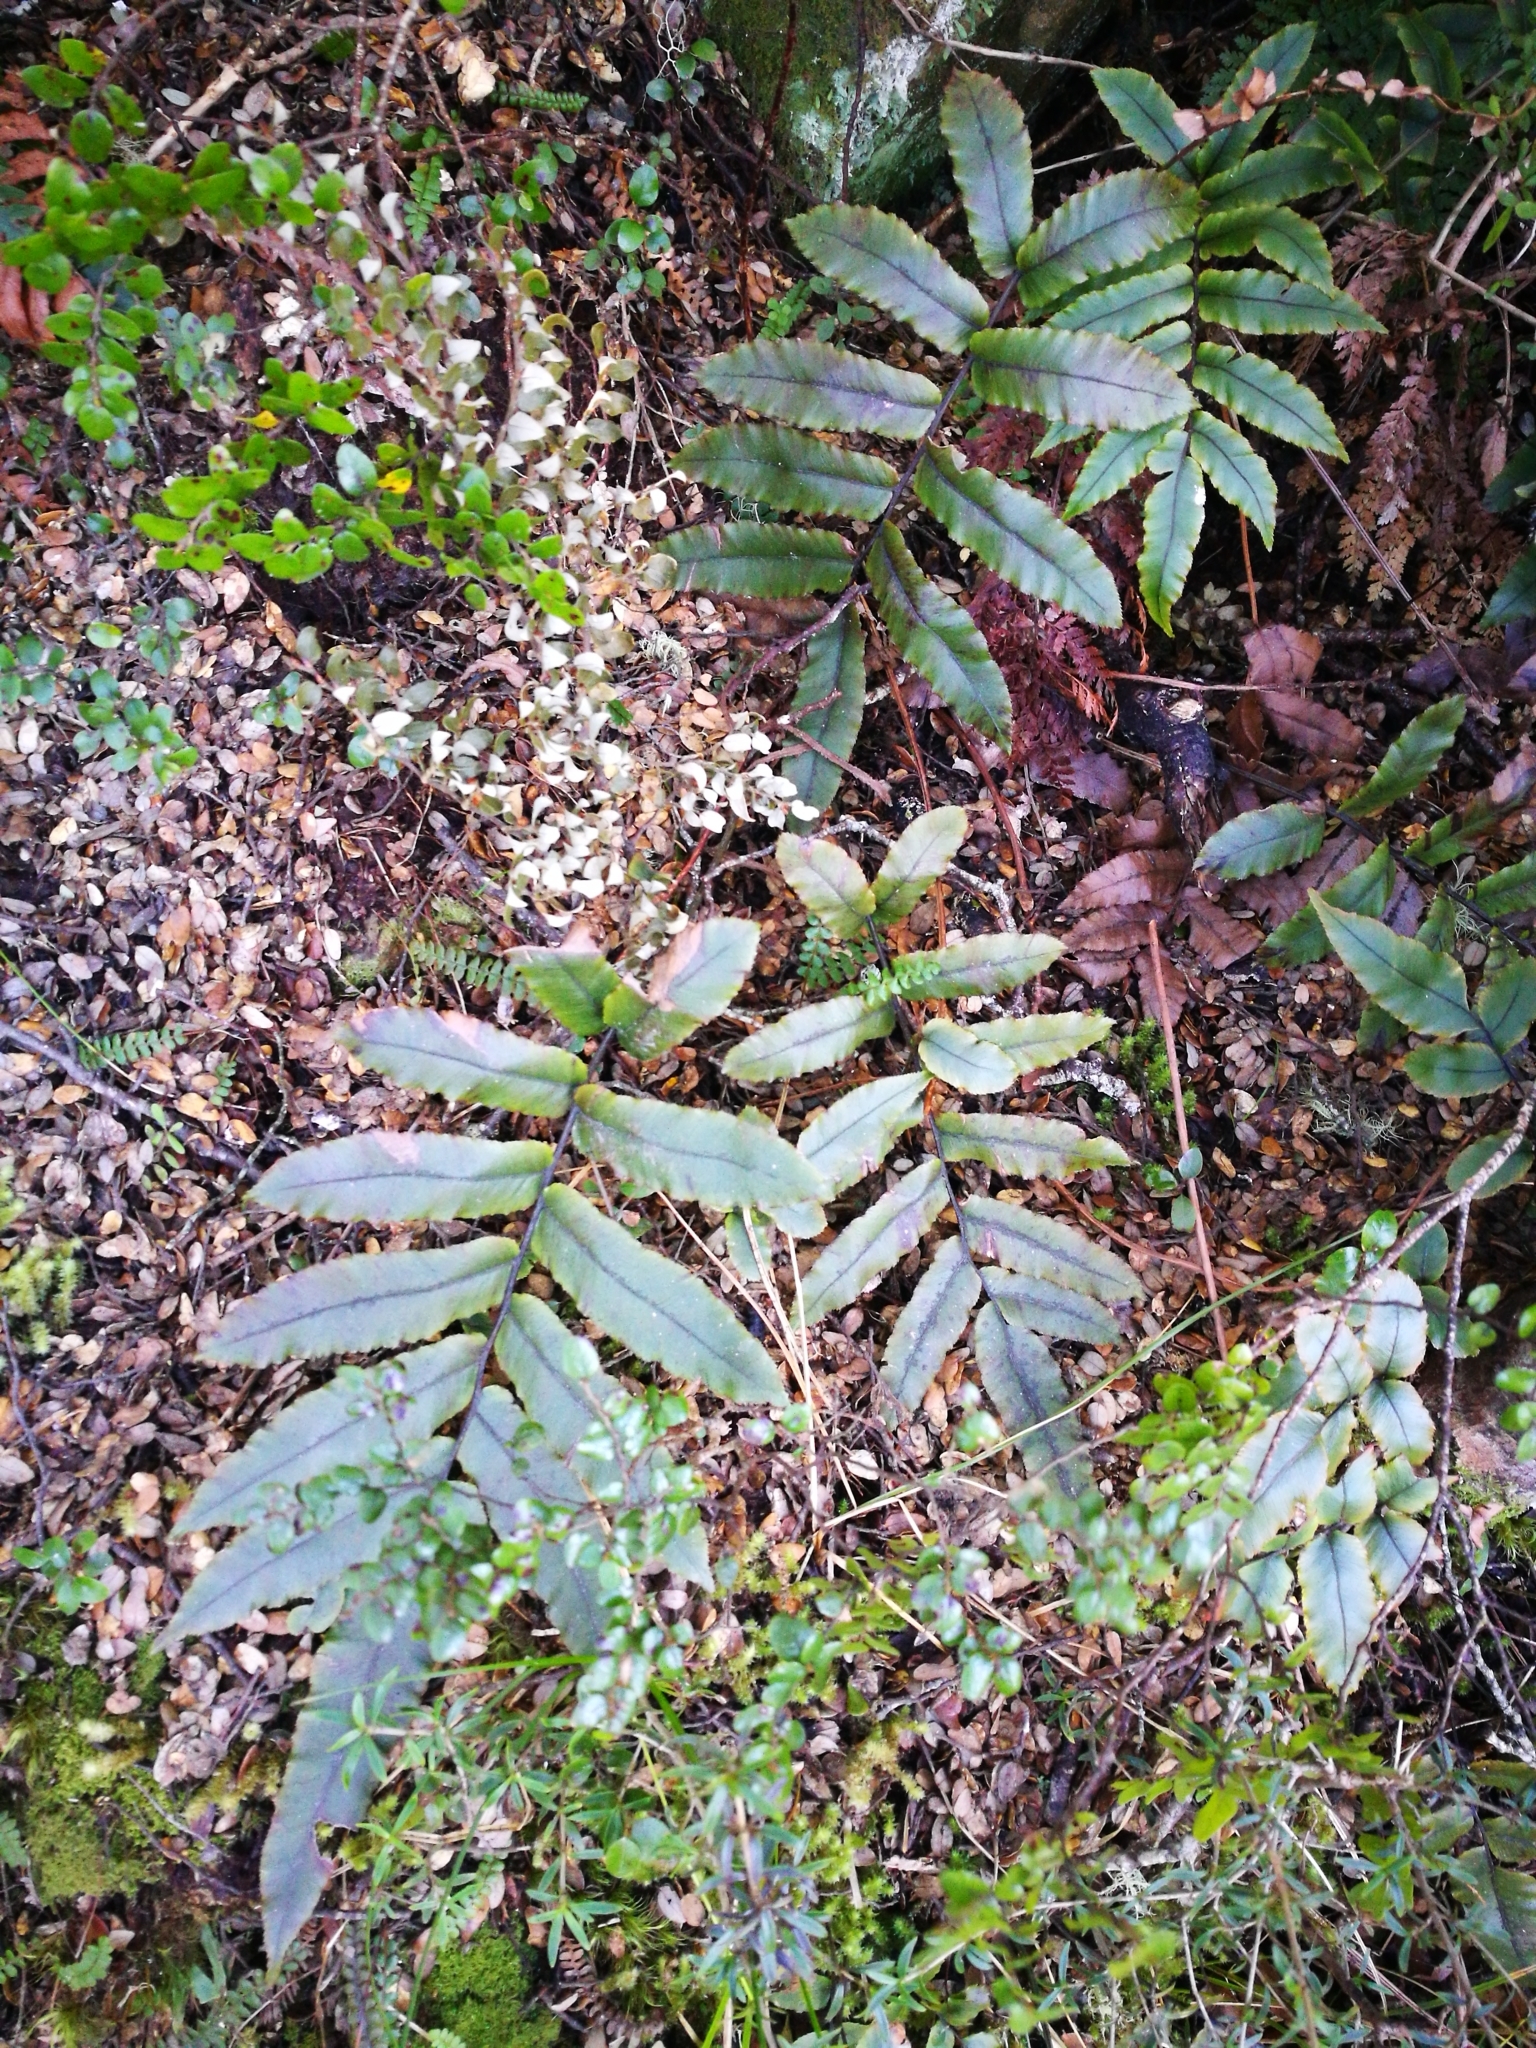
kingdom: Plantae
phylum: Tracheophyta
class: Polypodiopsida
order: Polypodiales
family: Blechnaceae
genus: Parablechnum
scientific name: Parablechnum procerum
